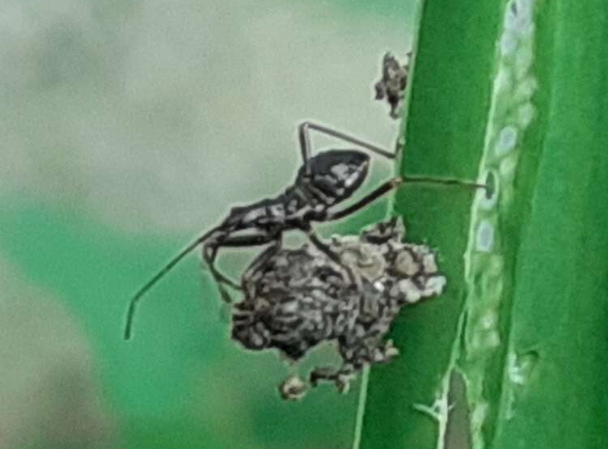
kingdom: Animalia
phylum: Arthropoda
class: Insecta
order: Hemiptera
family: Nabidae
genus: Himacerus
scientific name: Himacerus apterus
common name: Tree damsel bug
